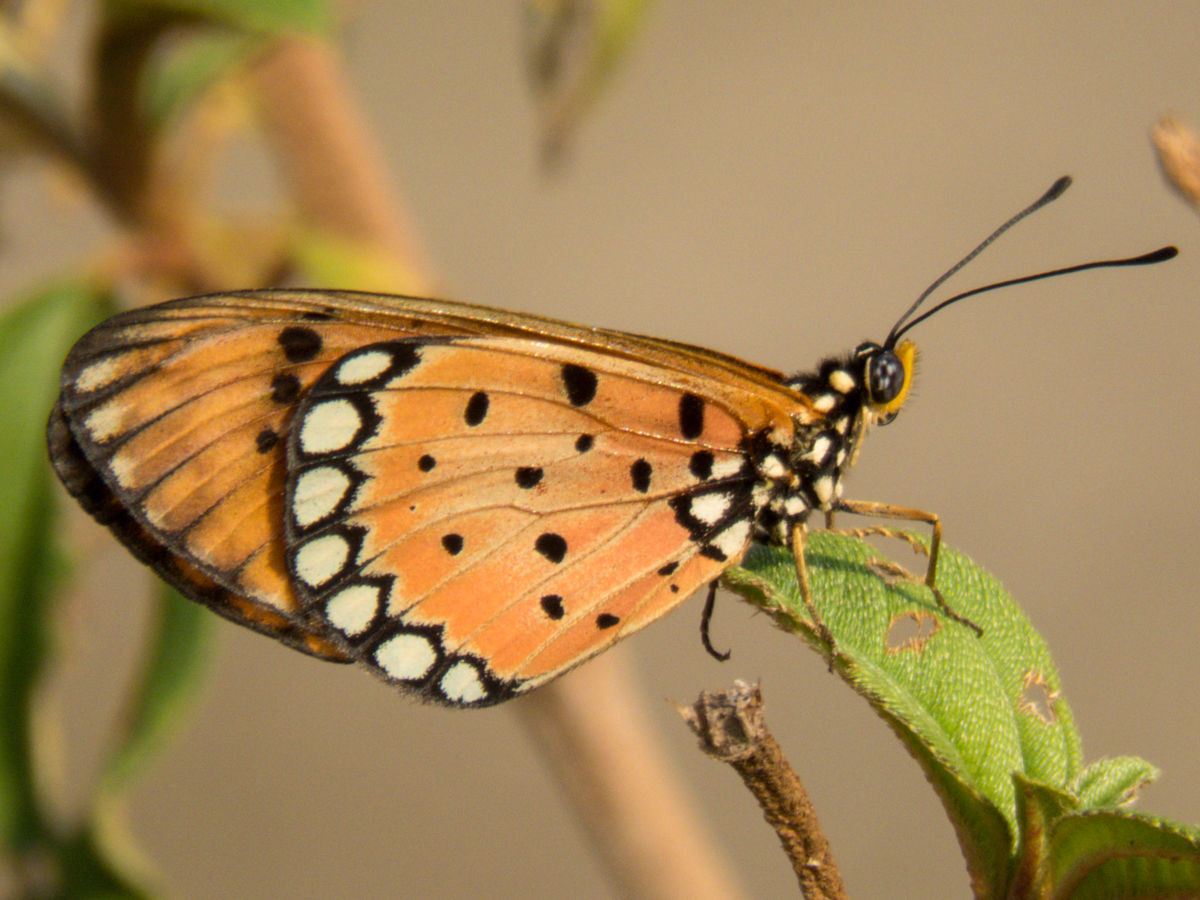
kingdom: Animalia
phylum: Arthropoda
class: Insecta
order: Lepidoptera
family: Nymphalidae
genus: Acraea
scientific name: Acraea terpsicore
